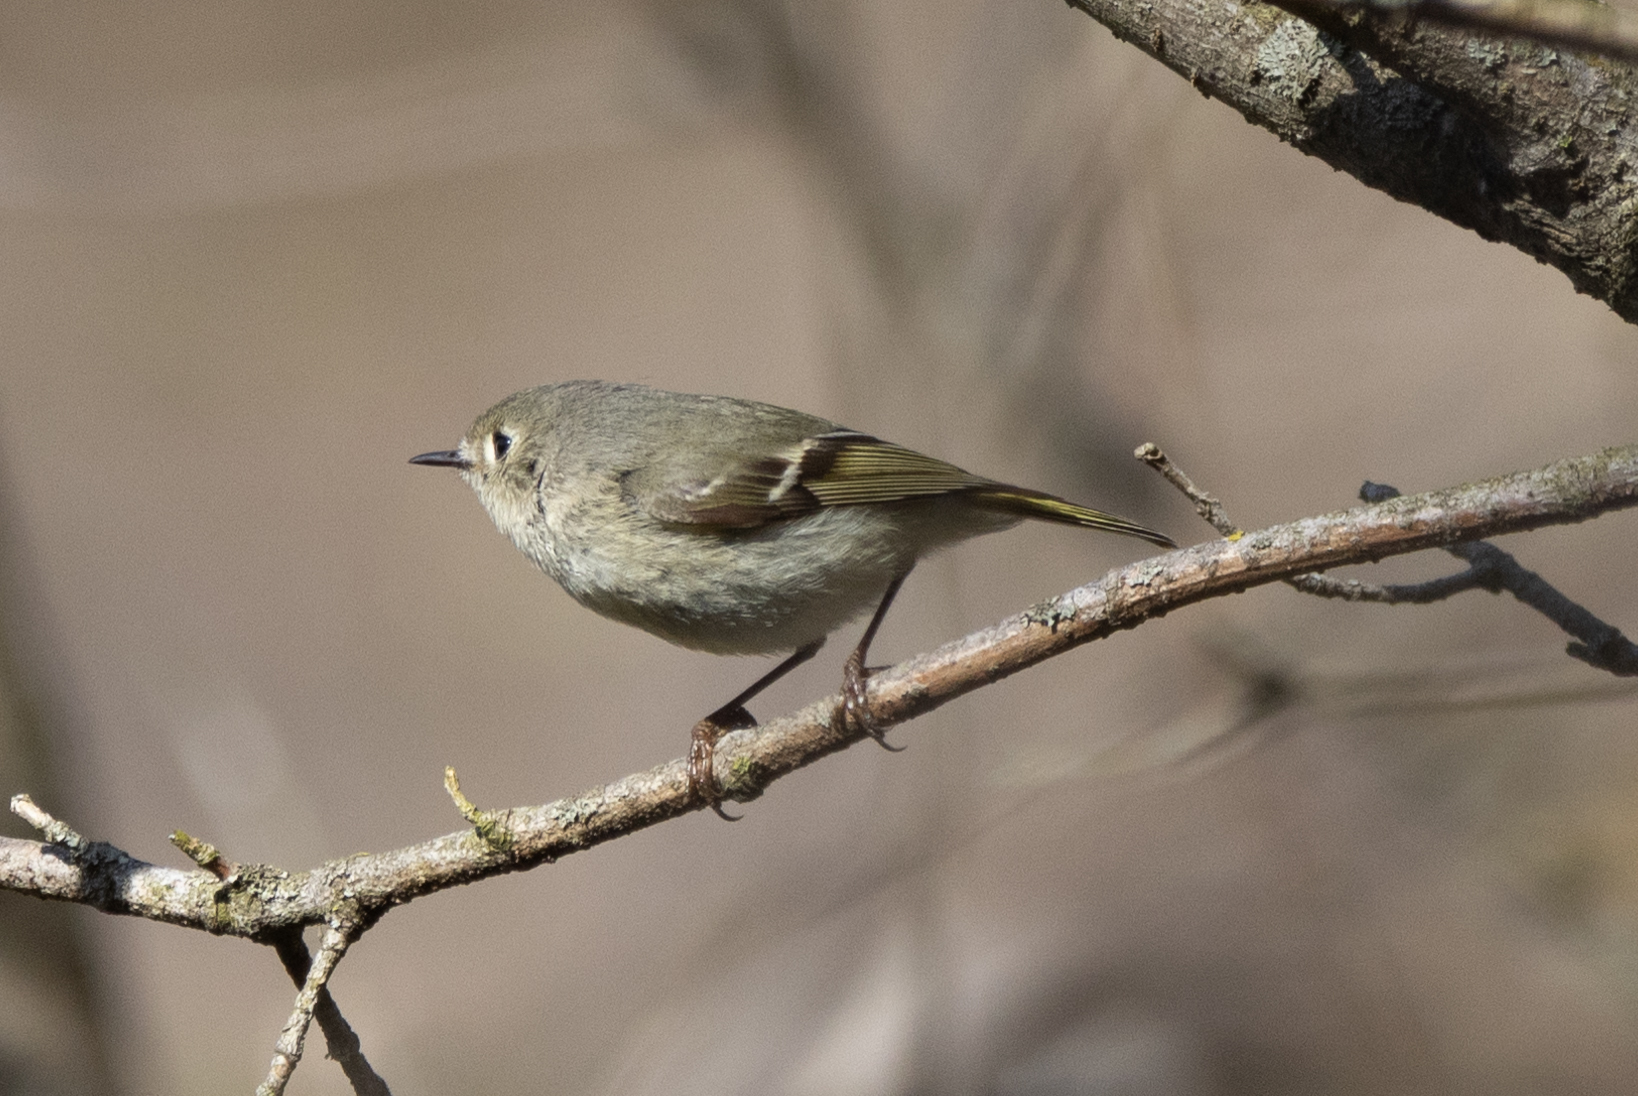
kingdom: Animalia
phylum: Chordata
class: Aves
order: Passeriformes
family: Regulidae
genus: Regulus
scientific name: Regulus calendula
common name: Ruby-crowned kinglet
